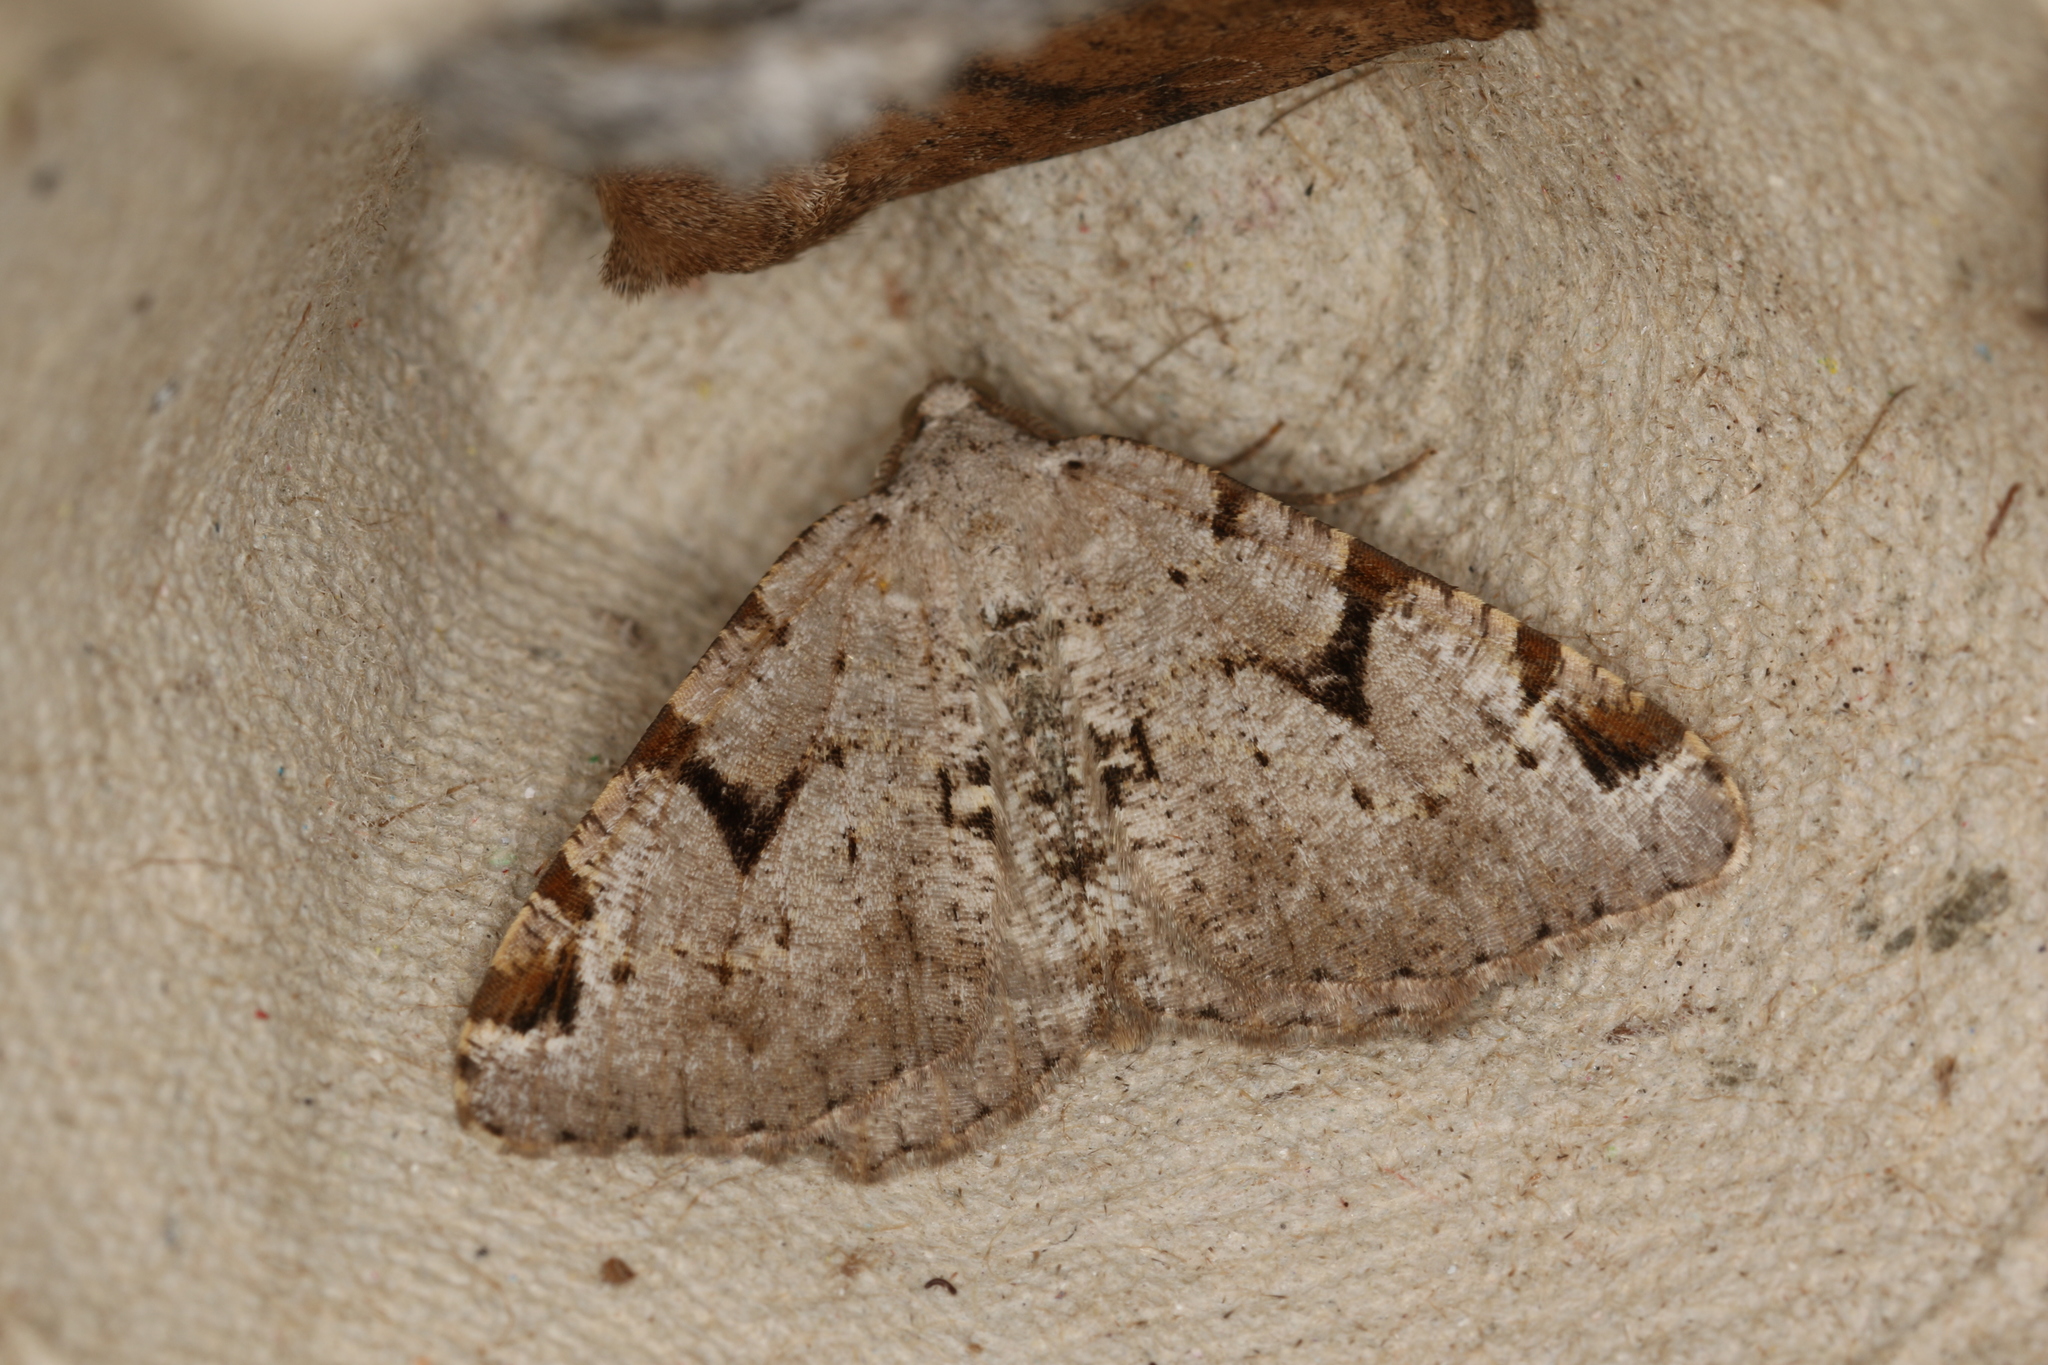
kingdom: Animalia
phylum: Arthropoda
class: Insecta
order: Lepidoptera
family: Geometridae
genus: Macaria
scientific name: Macaria wauaria
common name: V-moth
